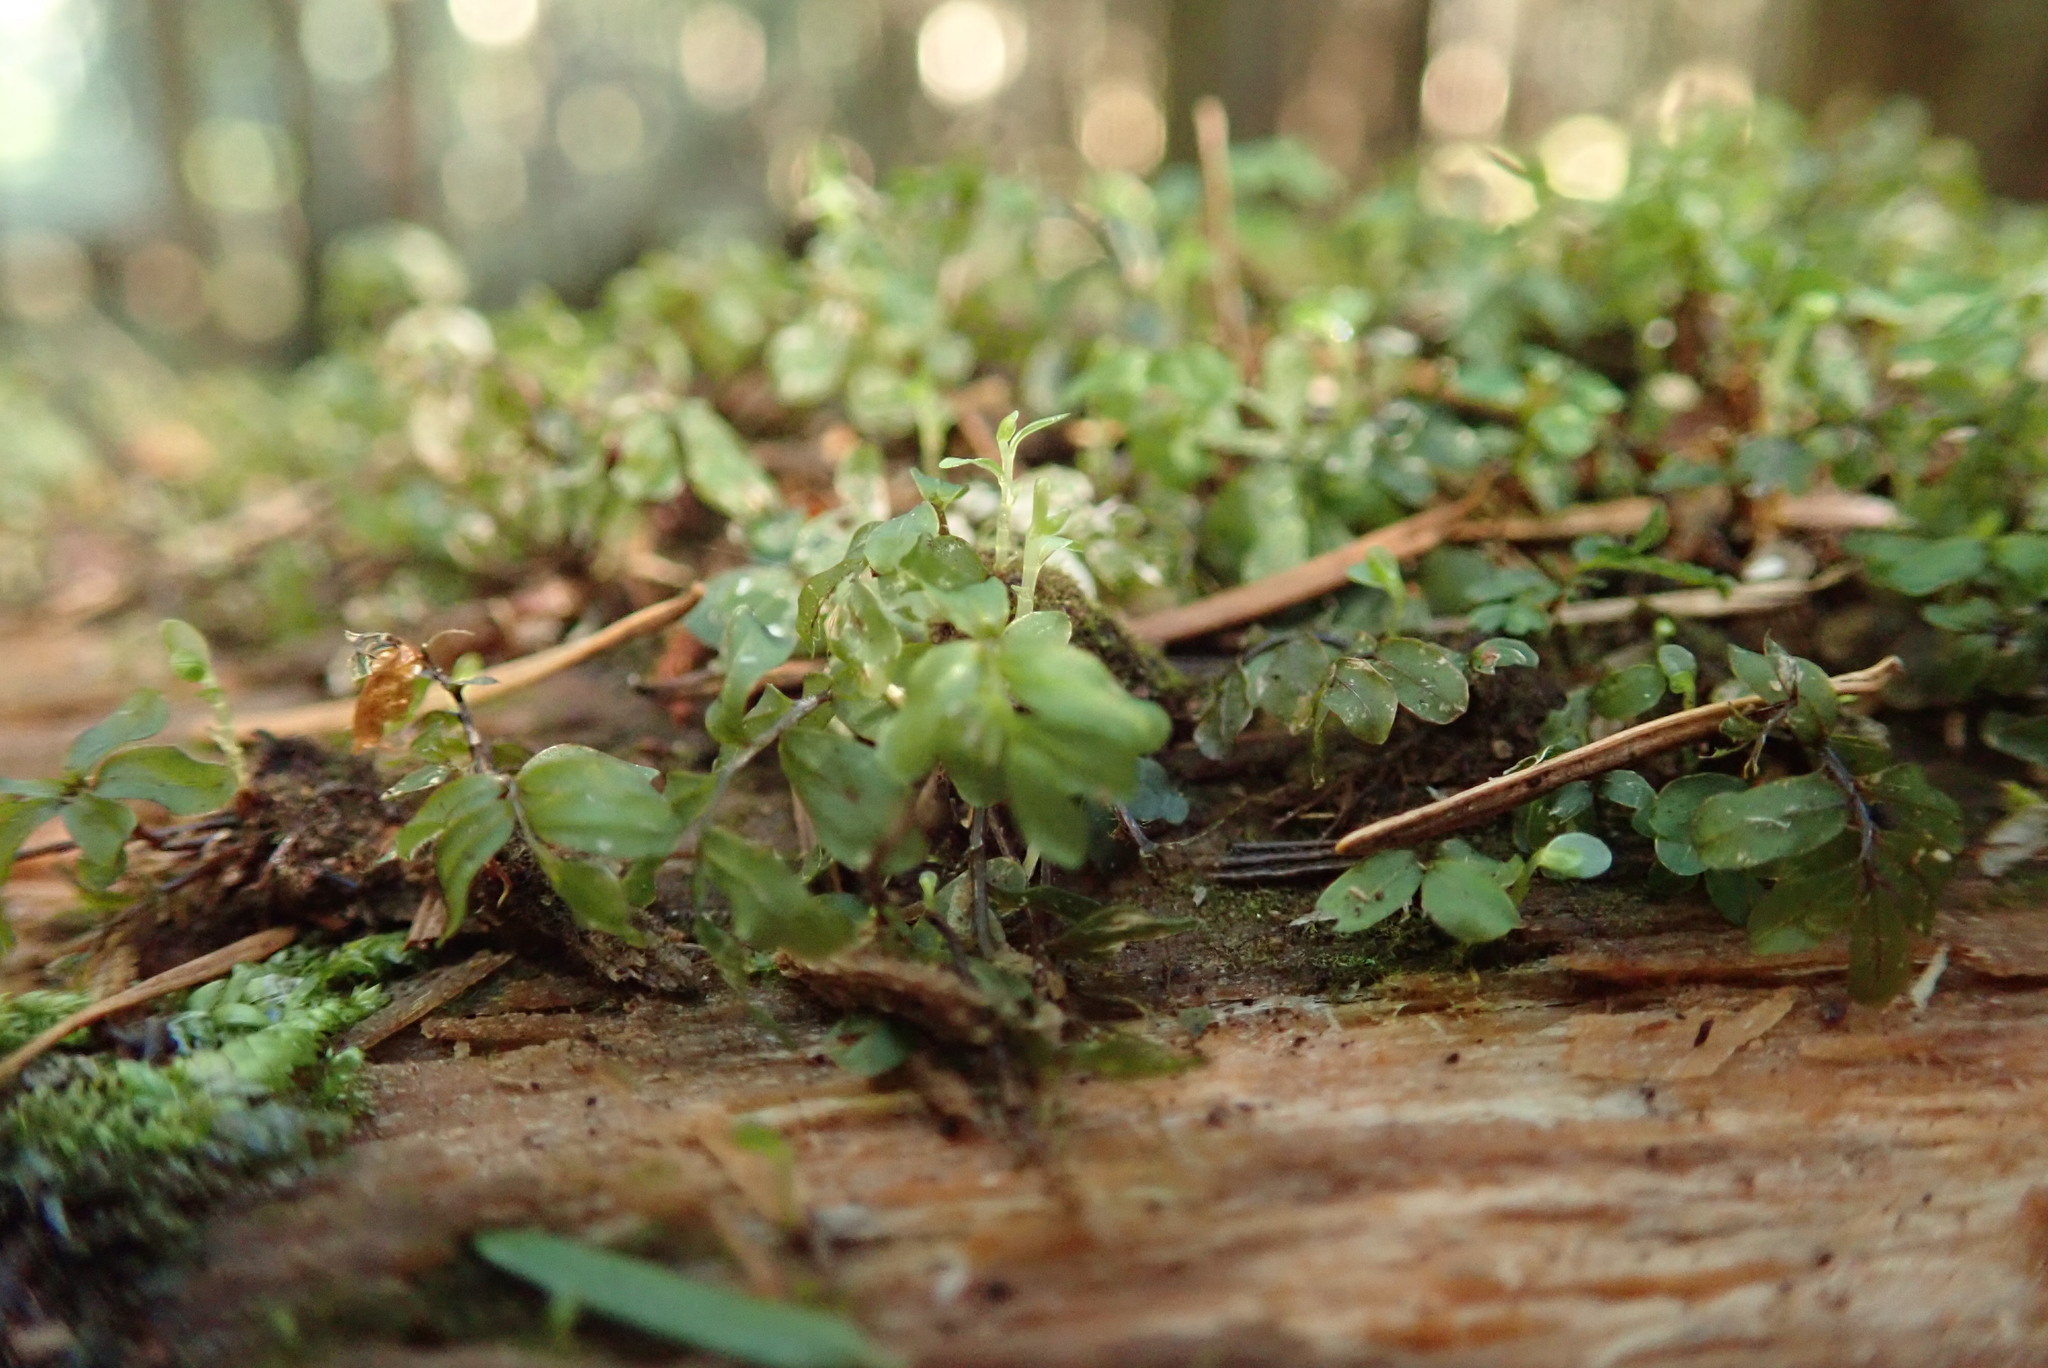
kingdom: Plantae
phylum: Bryophyta
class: Bryopsida
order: Bryales
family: Mniaceae
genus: Rhizomnium
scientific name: Rhizomnium glabrescens
